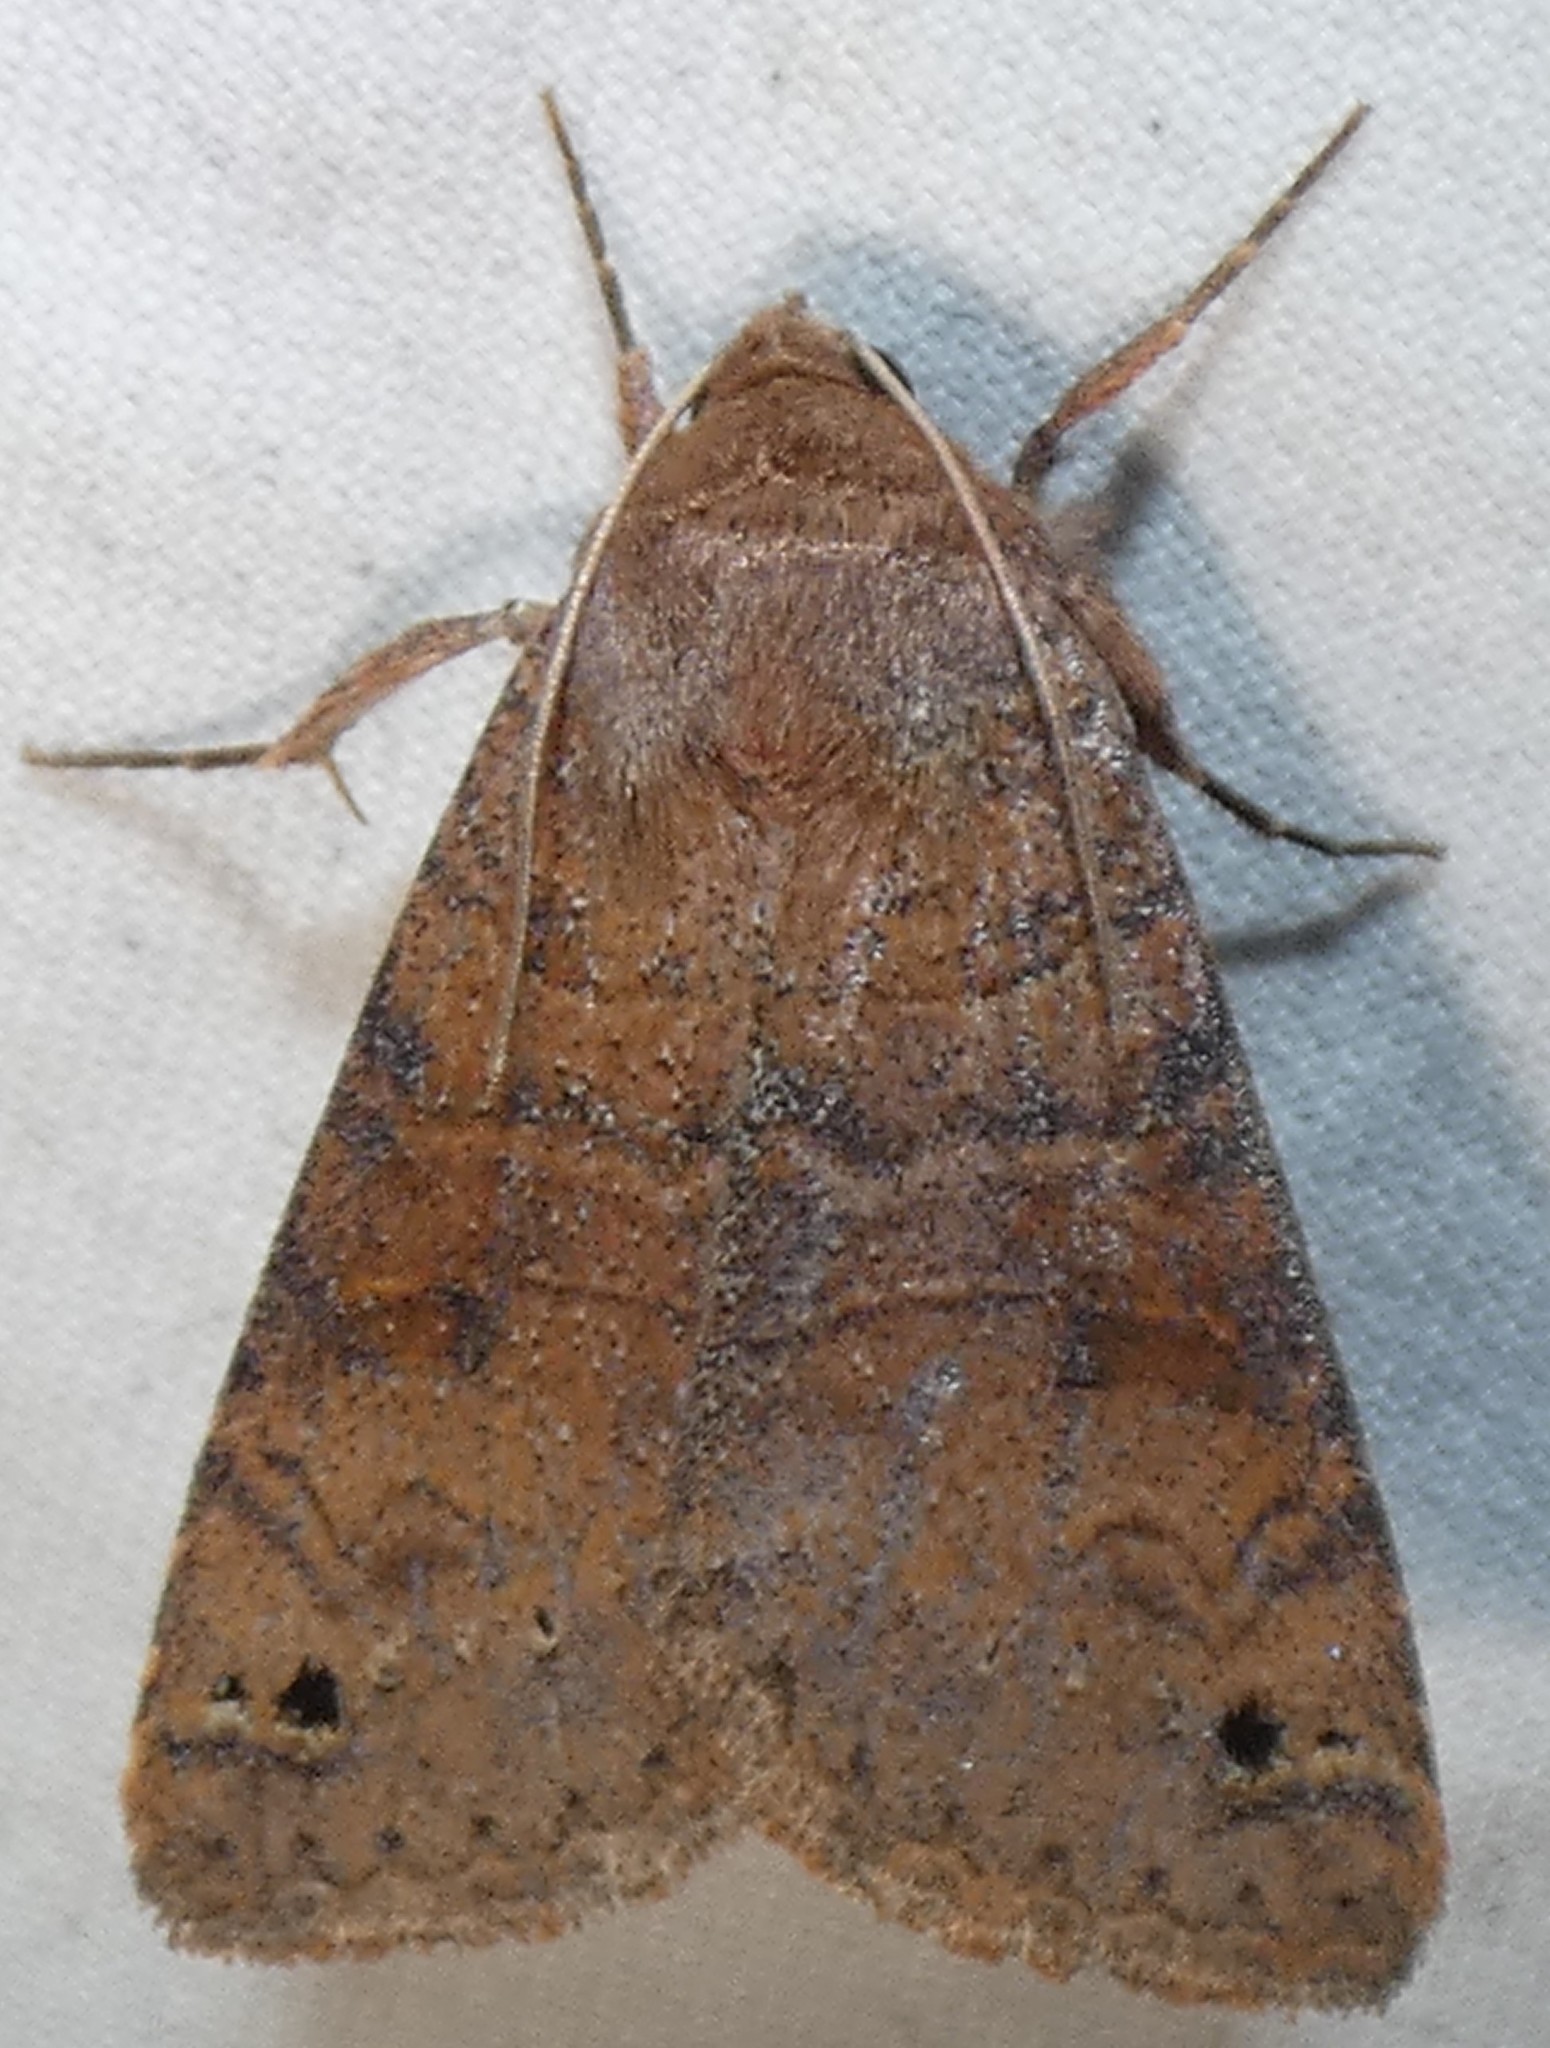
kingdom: Animalia
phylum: Arthropoda
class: Insecta
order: Lepidoptera
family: Erebidae
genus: Cissusa
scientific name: Cissusa spadix
